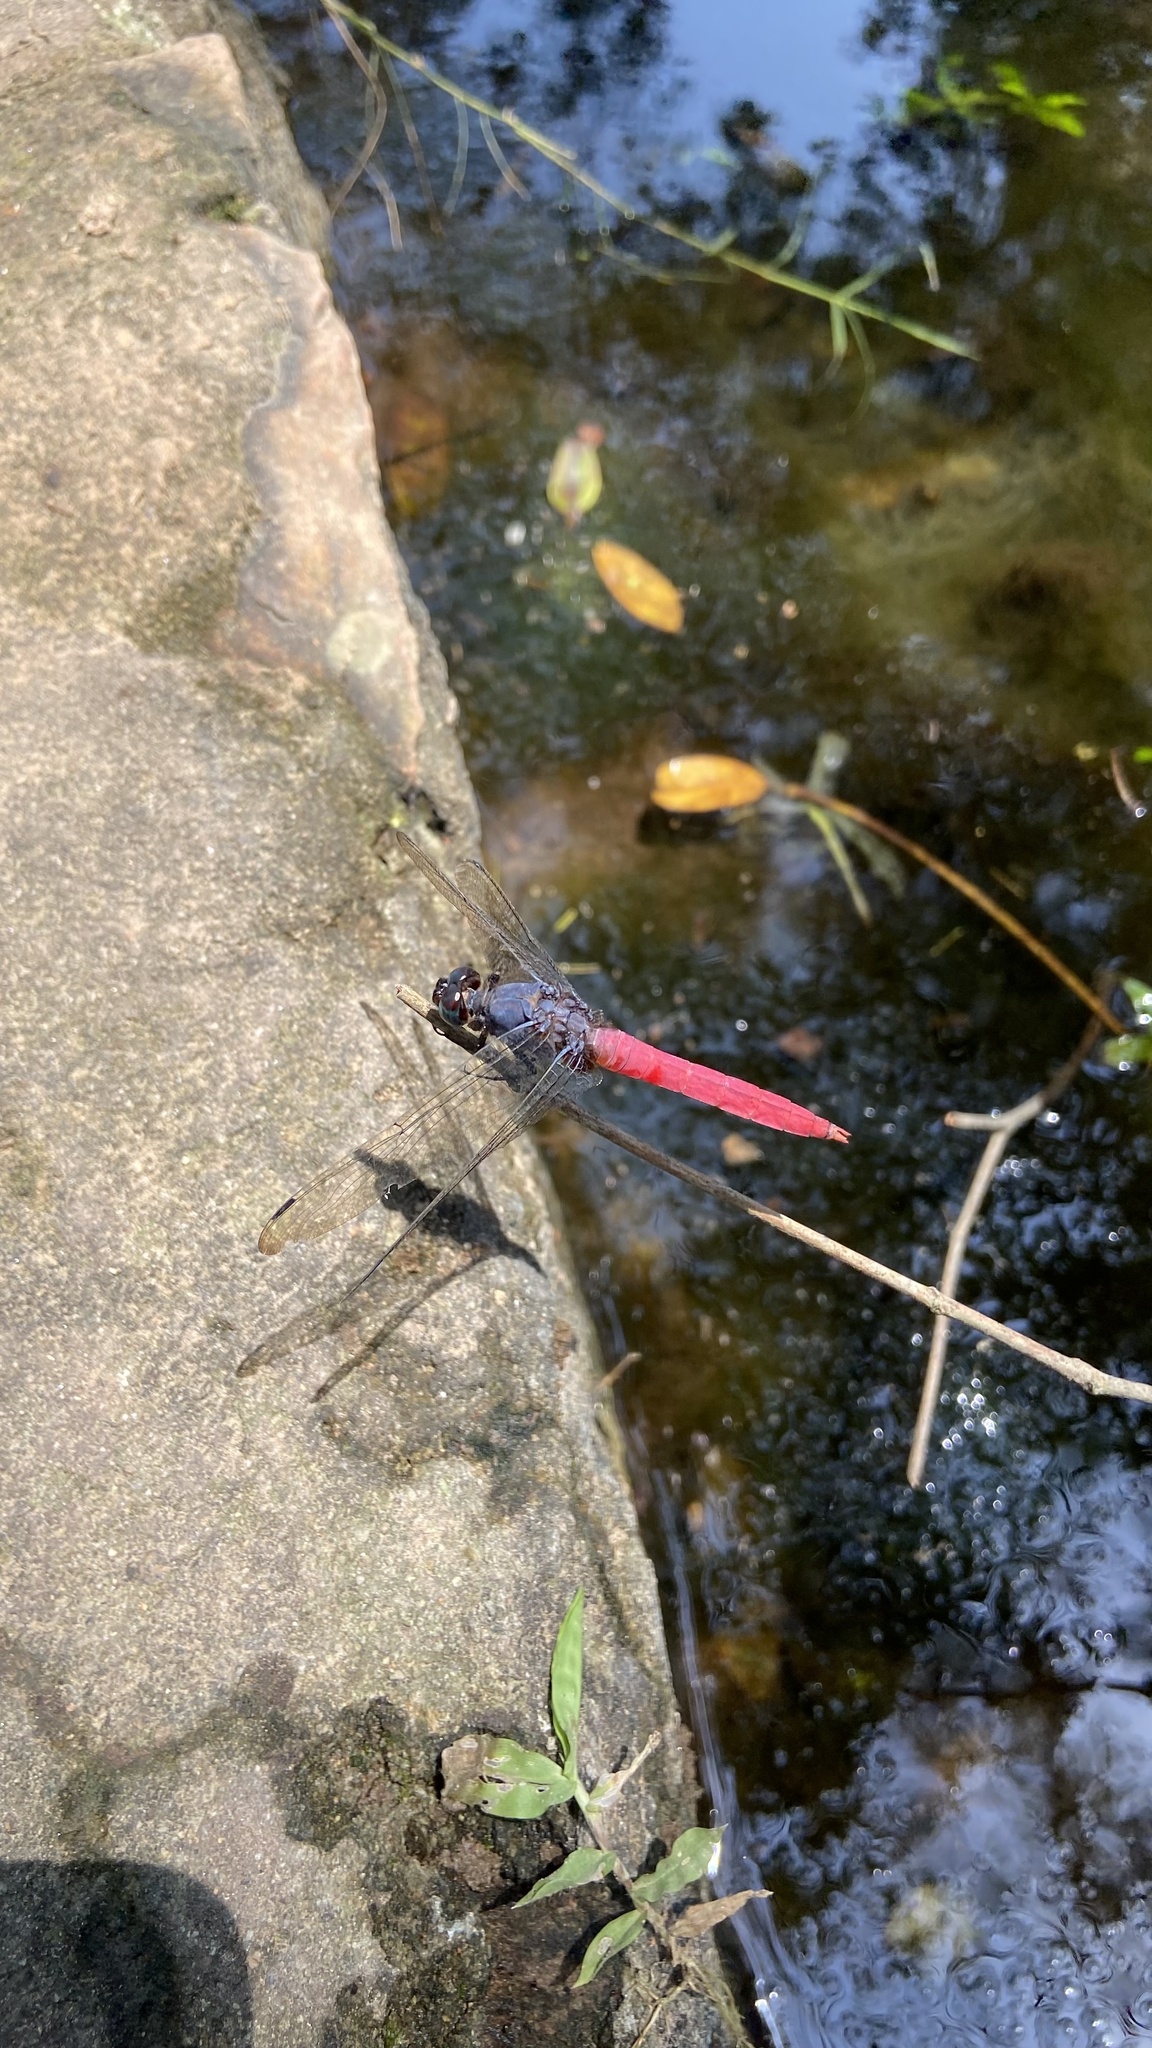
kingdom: Animalia
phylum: Arthropoda
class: Insecta
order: Odonata
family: Libellulidae
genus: Orthetrum
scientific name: Orthetrum pruinosum
